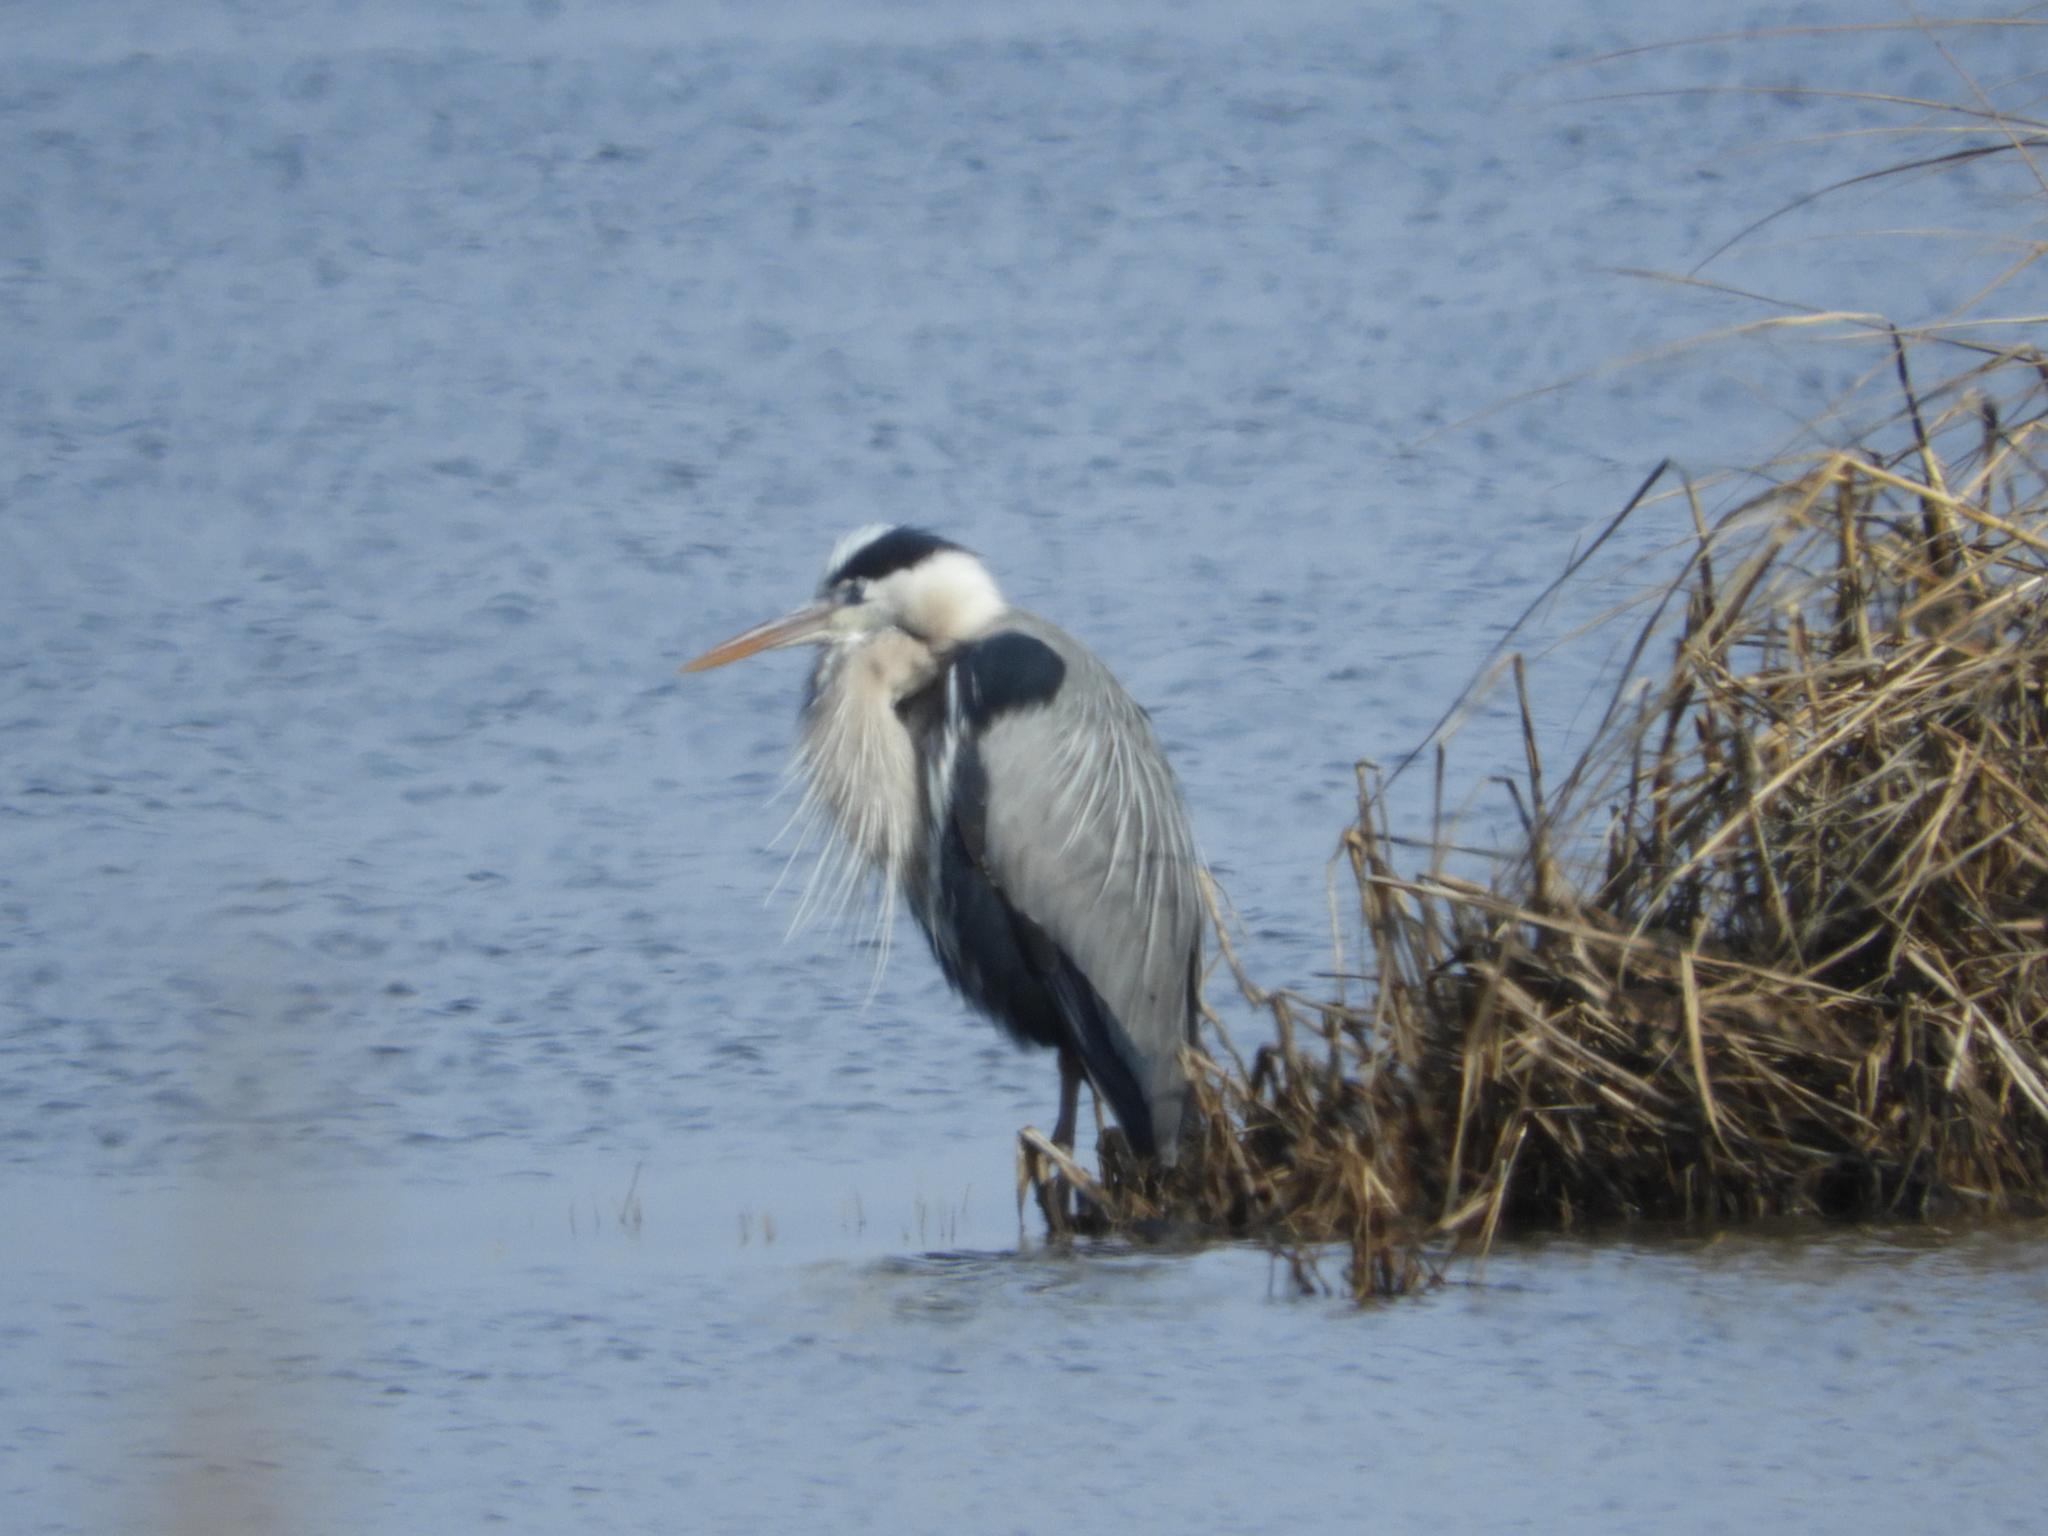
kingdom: Animalia
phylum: Chordata
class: Aves
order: Pelecaniformes
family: Ardeidae
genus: Ardea
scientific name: Ardea herodias
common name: Great blue heron
